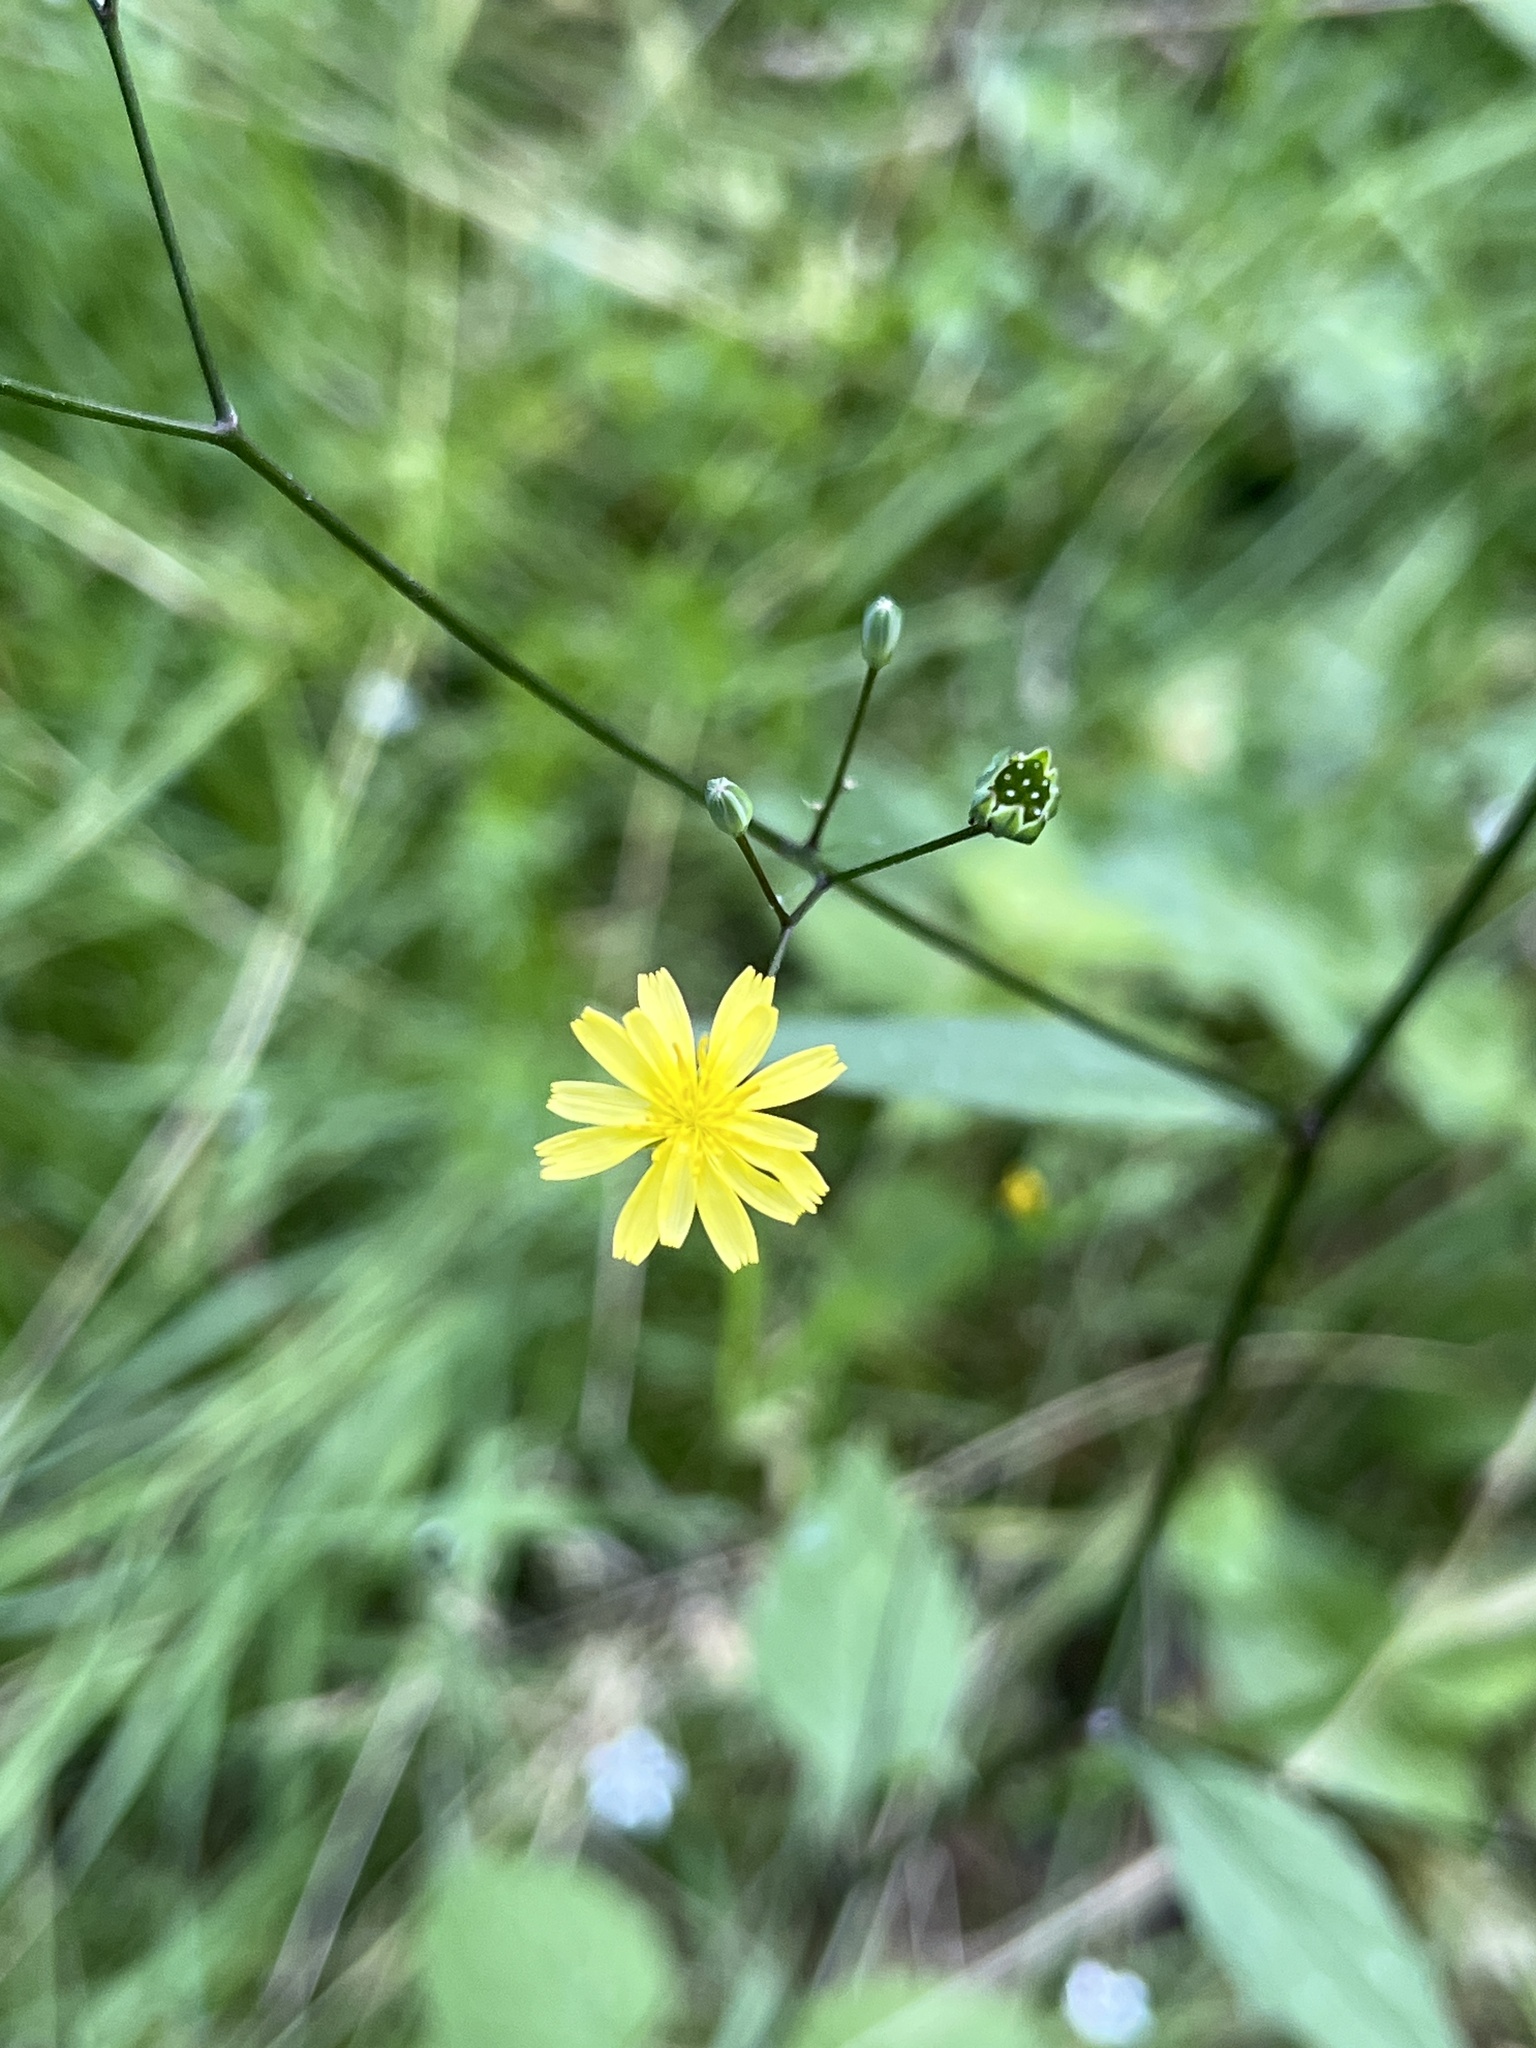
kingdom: Plantae
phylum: Tracheophyta
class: Magnoliopsida
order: Asterales
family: Asteraceae
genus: Lapsana
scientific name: Lapsana communis
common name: Nipplewort
